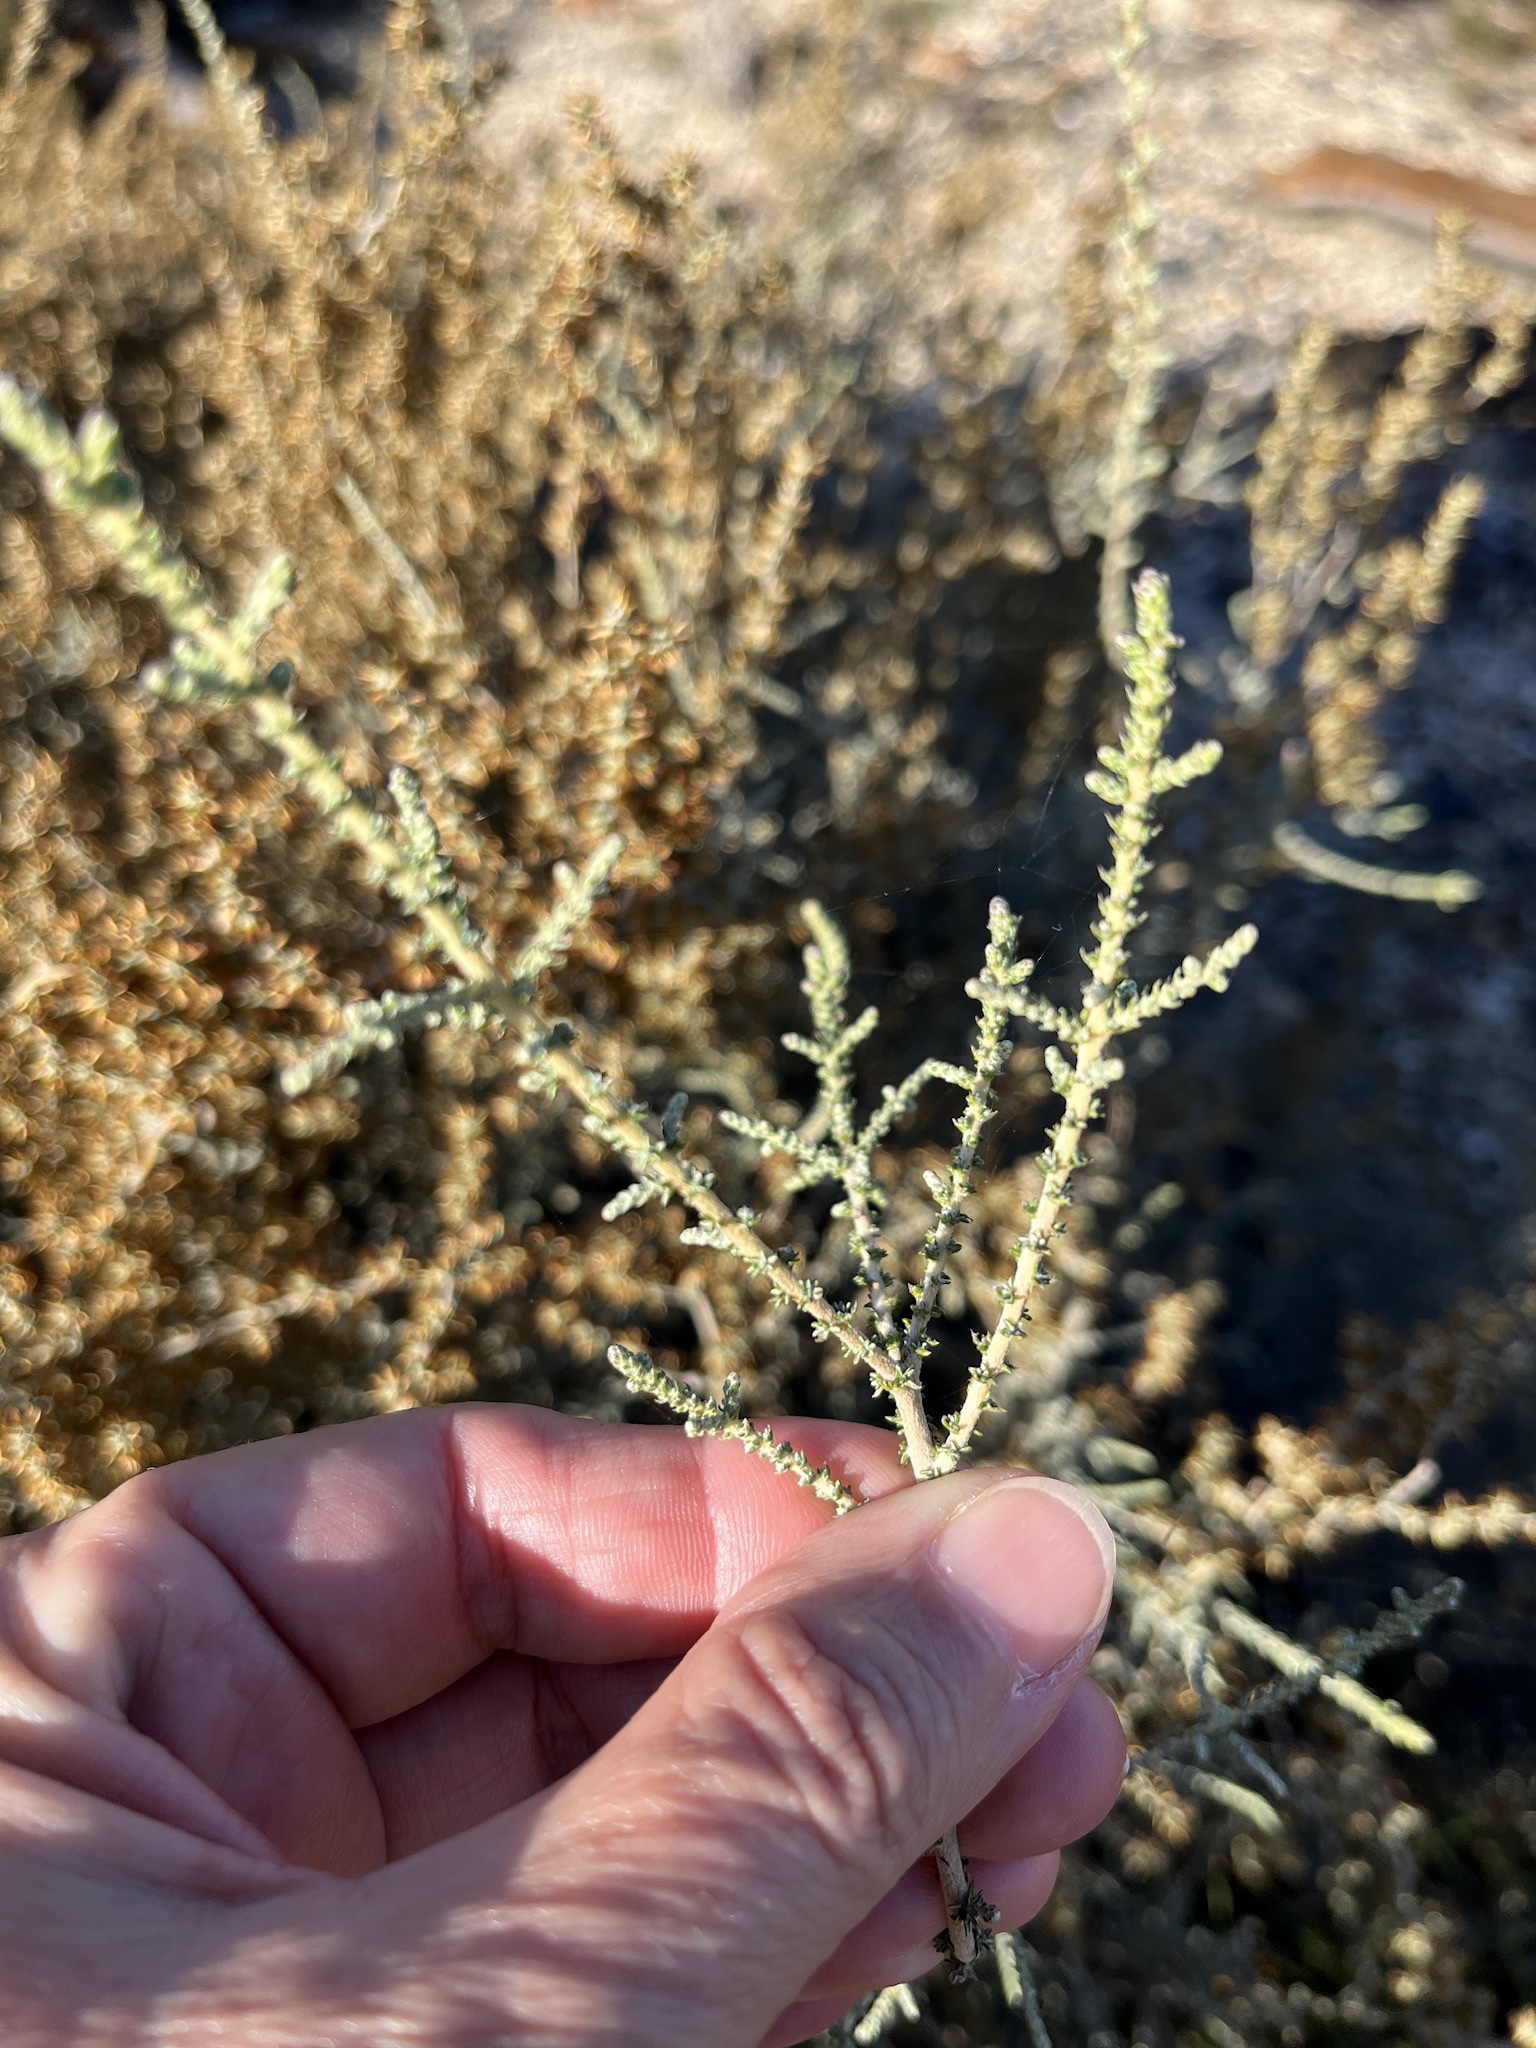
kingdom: Plantae
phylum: Tracheophyta
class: Magnoliopsida
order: Asterales
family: Asteraceae
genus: Seriphium
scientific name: Seriphium plumosum
